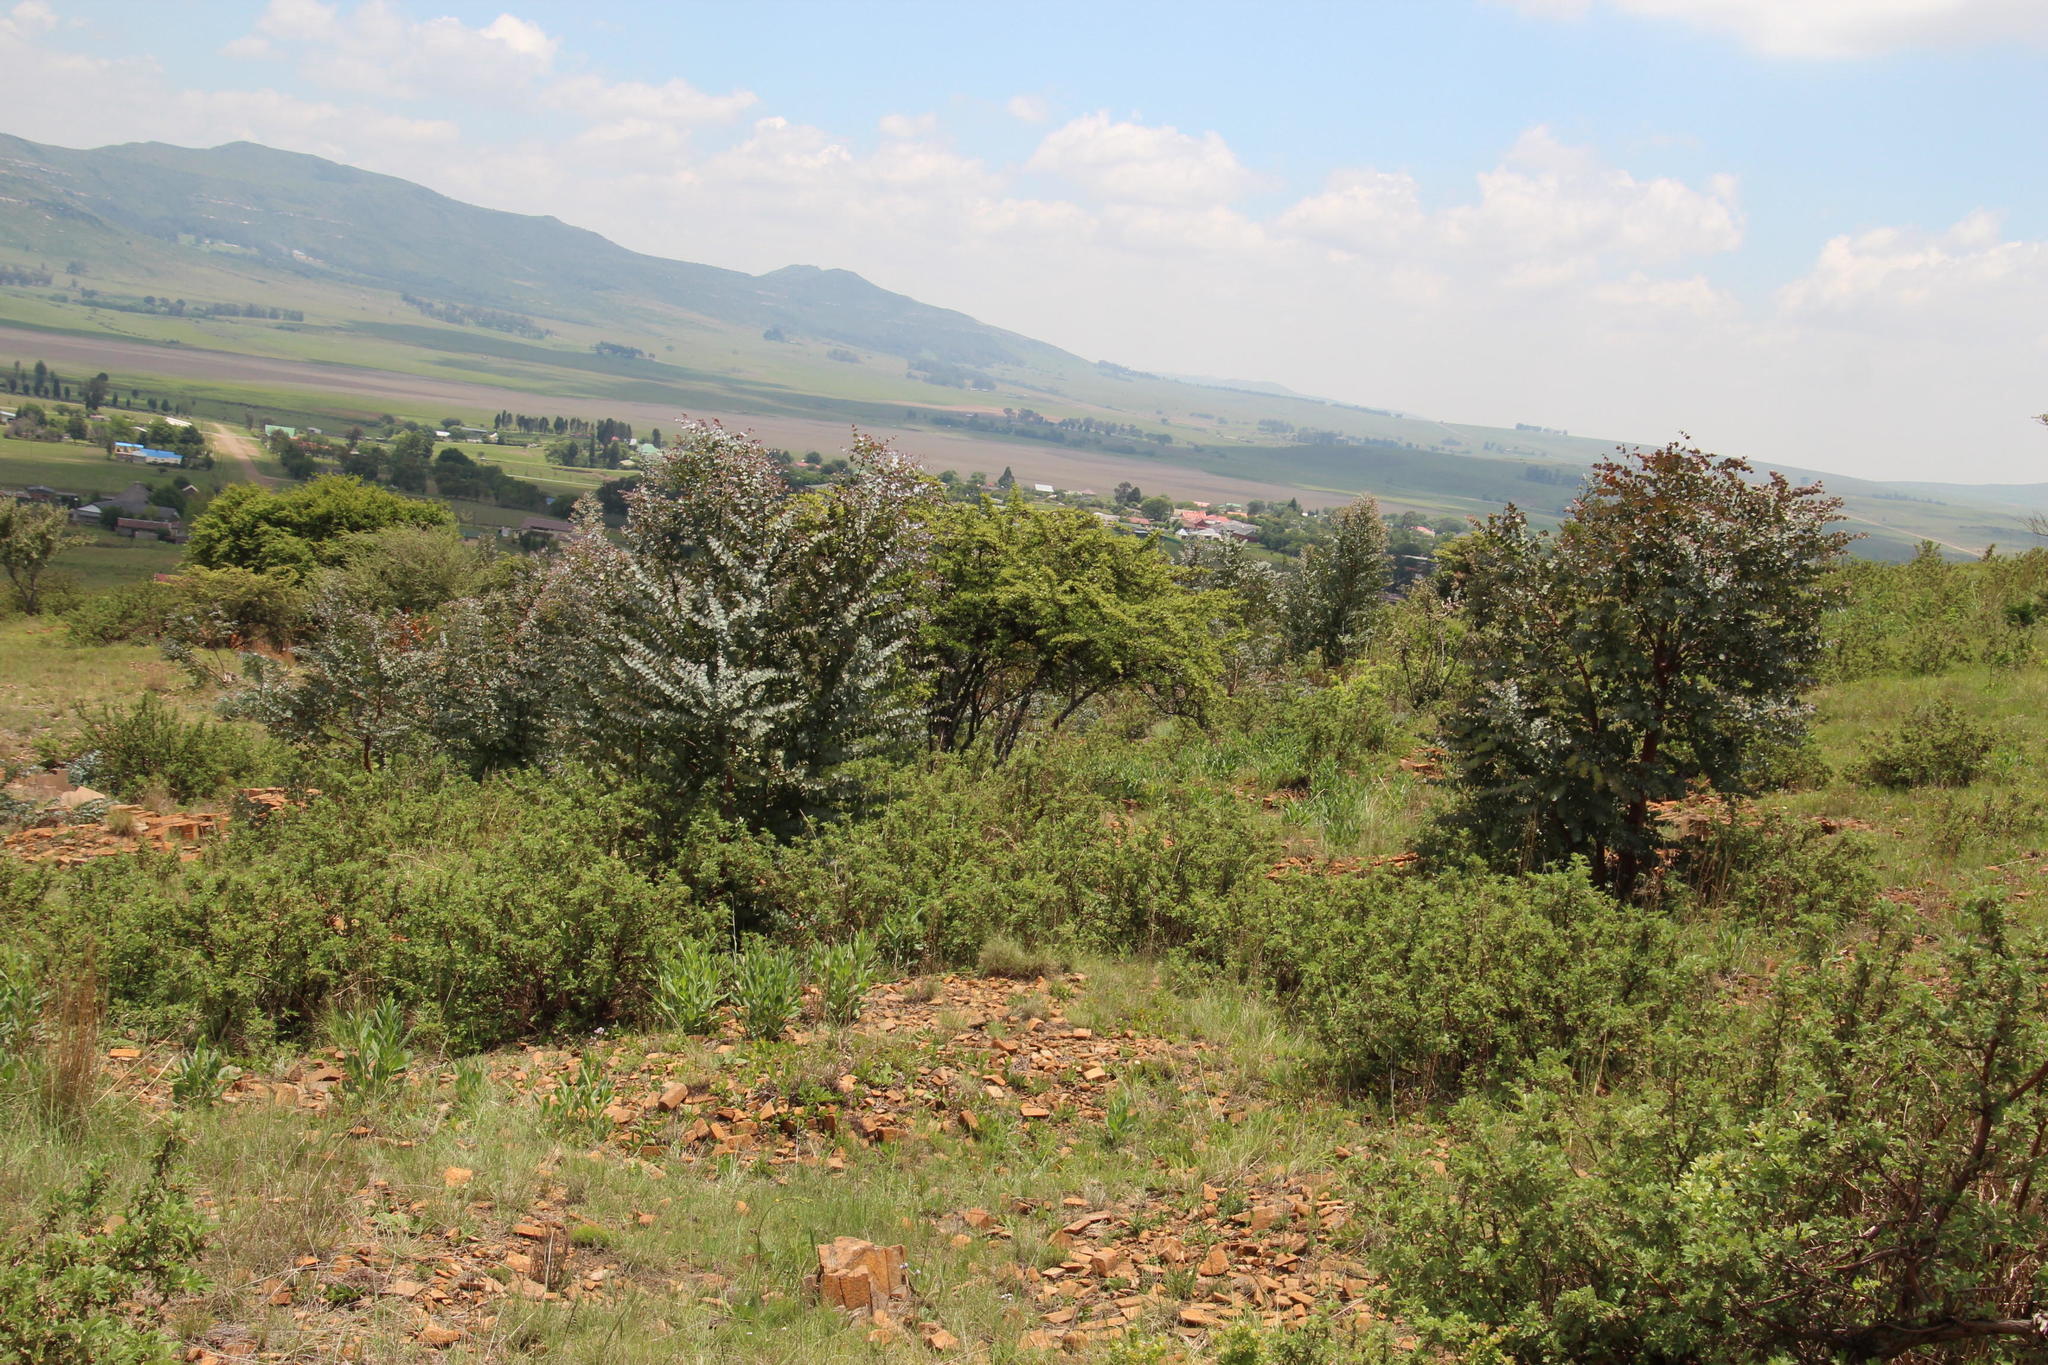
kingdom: Plantae
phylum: Tracheophyta
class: Magnoliopsida
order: Myrtales
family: Myrtaceae
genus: Eucalyptus
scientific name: Eucalyptus cinerea
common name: Argyle apple
